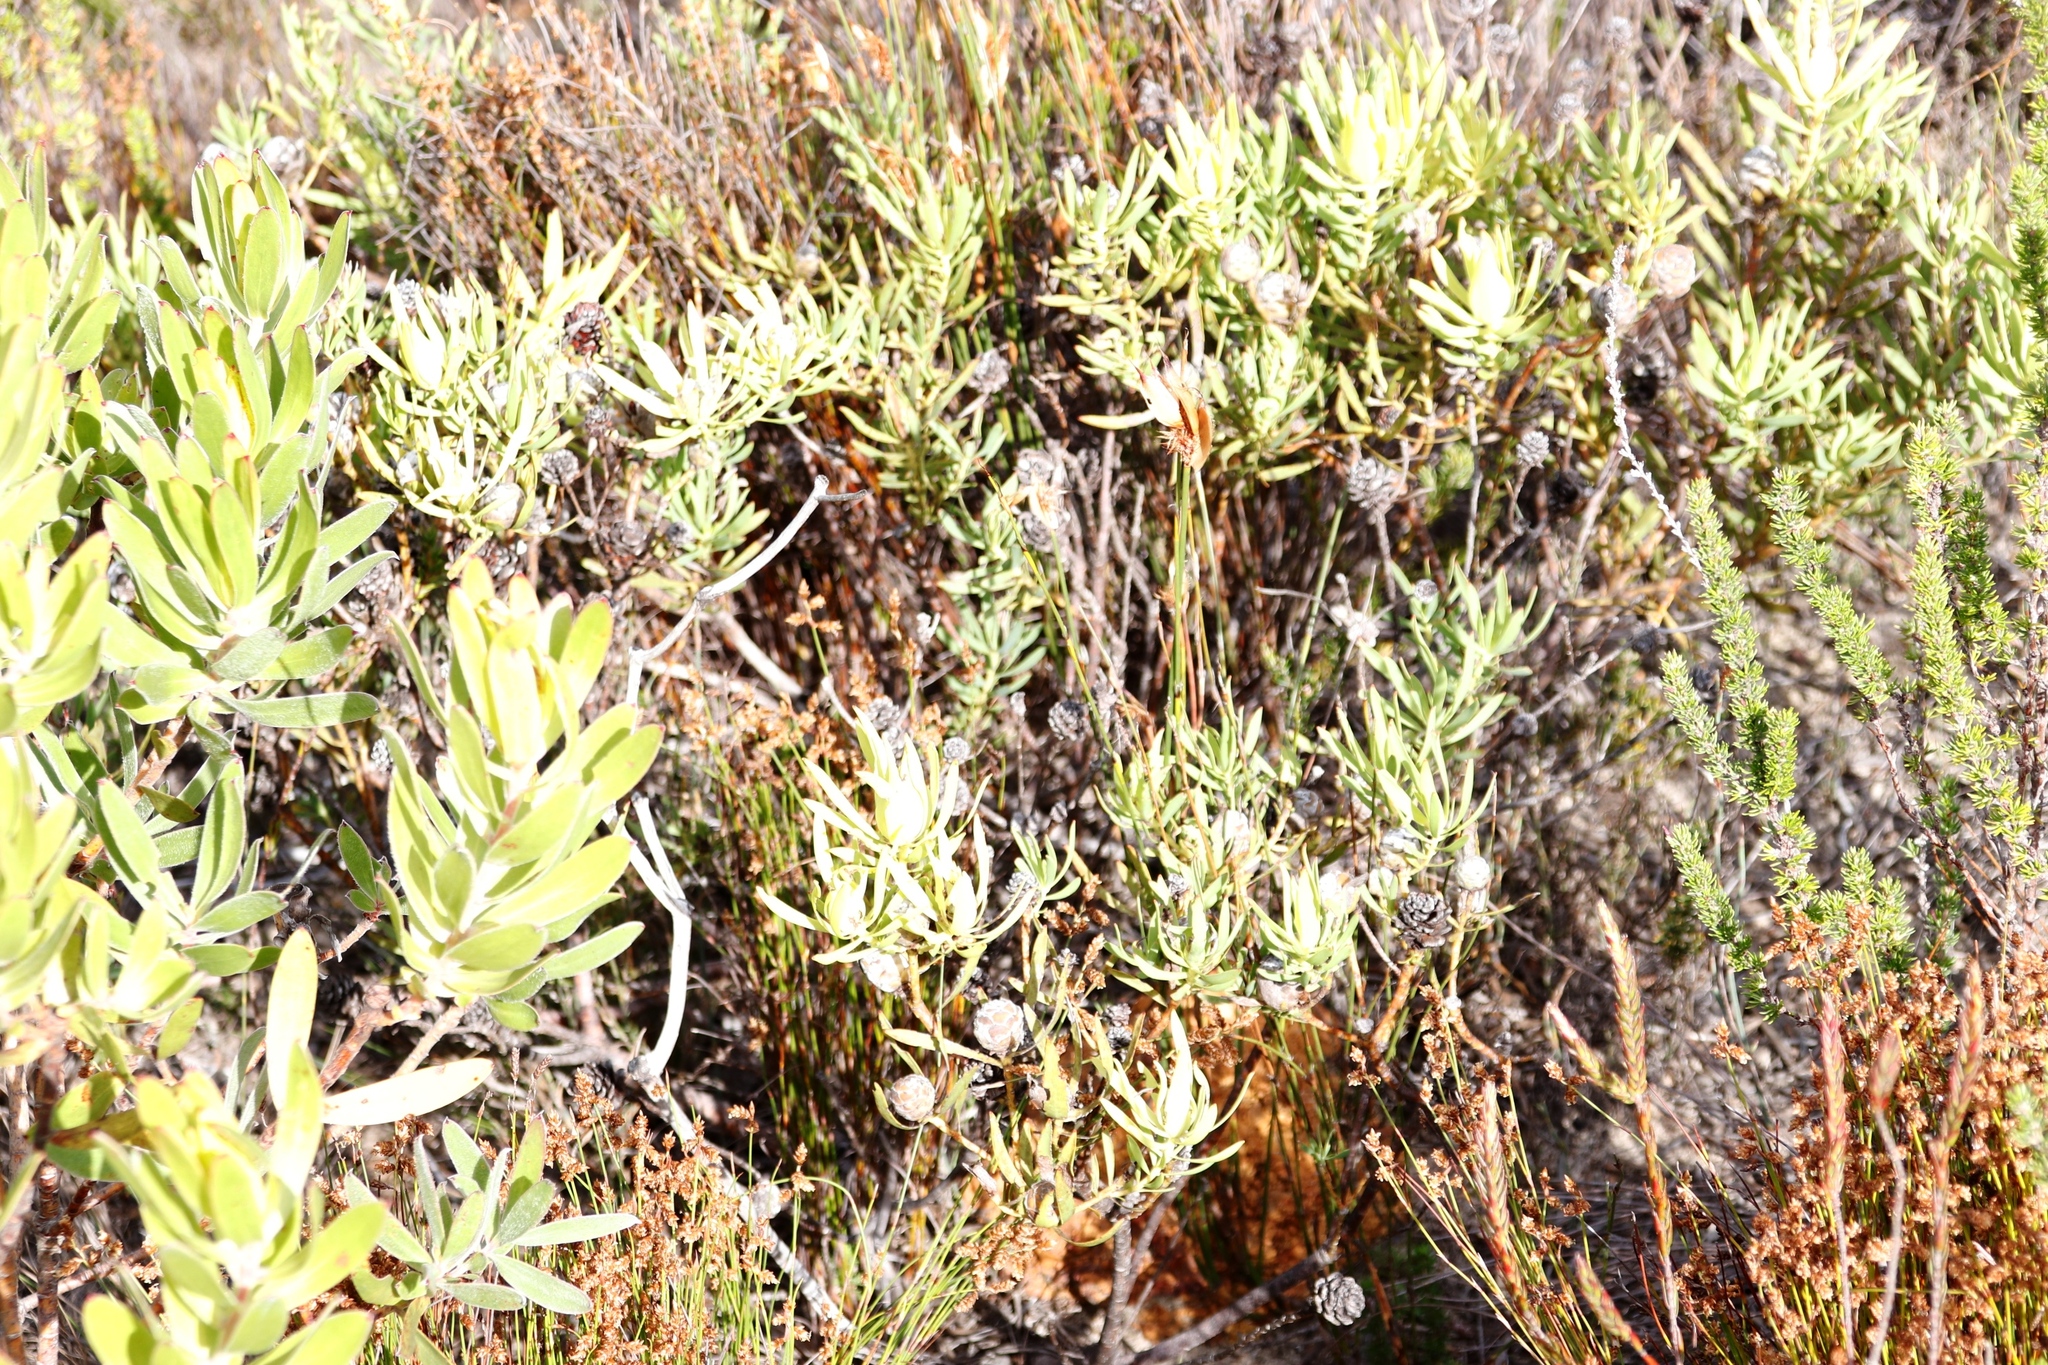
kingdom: Plantae
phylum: Tracheophyta
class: Magnoliopsida
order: Proteales
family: Proteaceae
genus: Leucadendron
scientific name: Leucadendron salignum
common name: Common sunshine conebush
